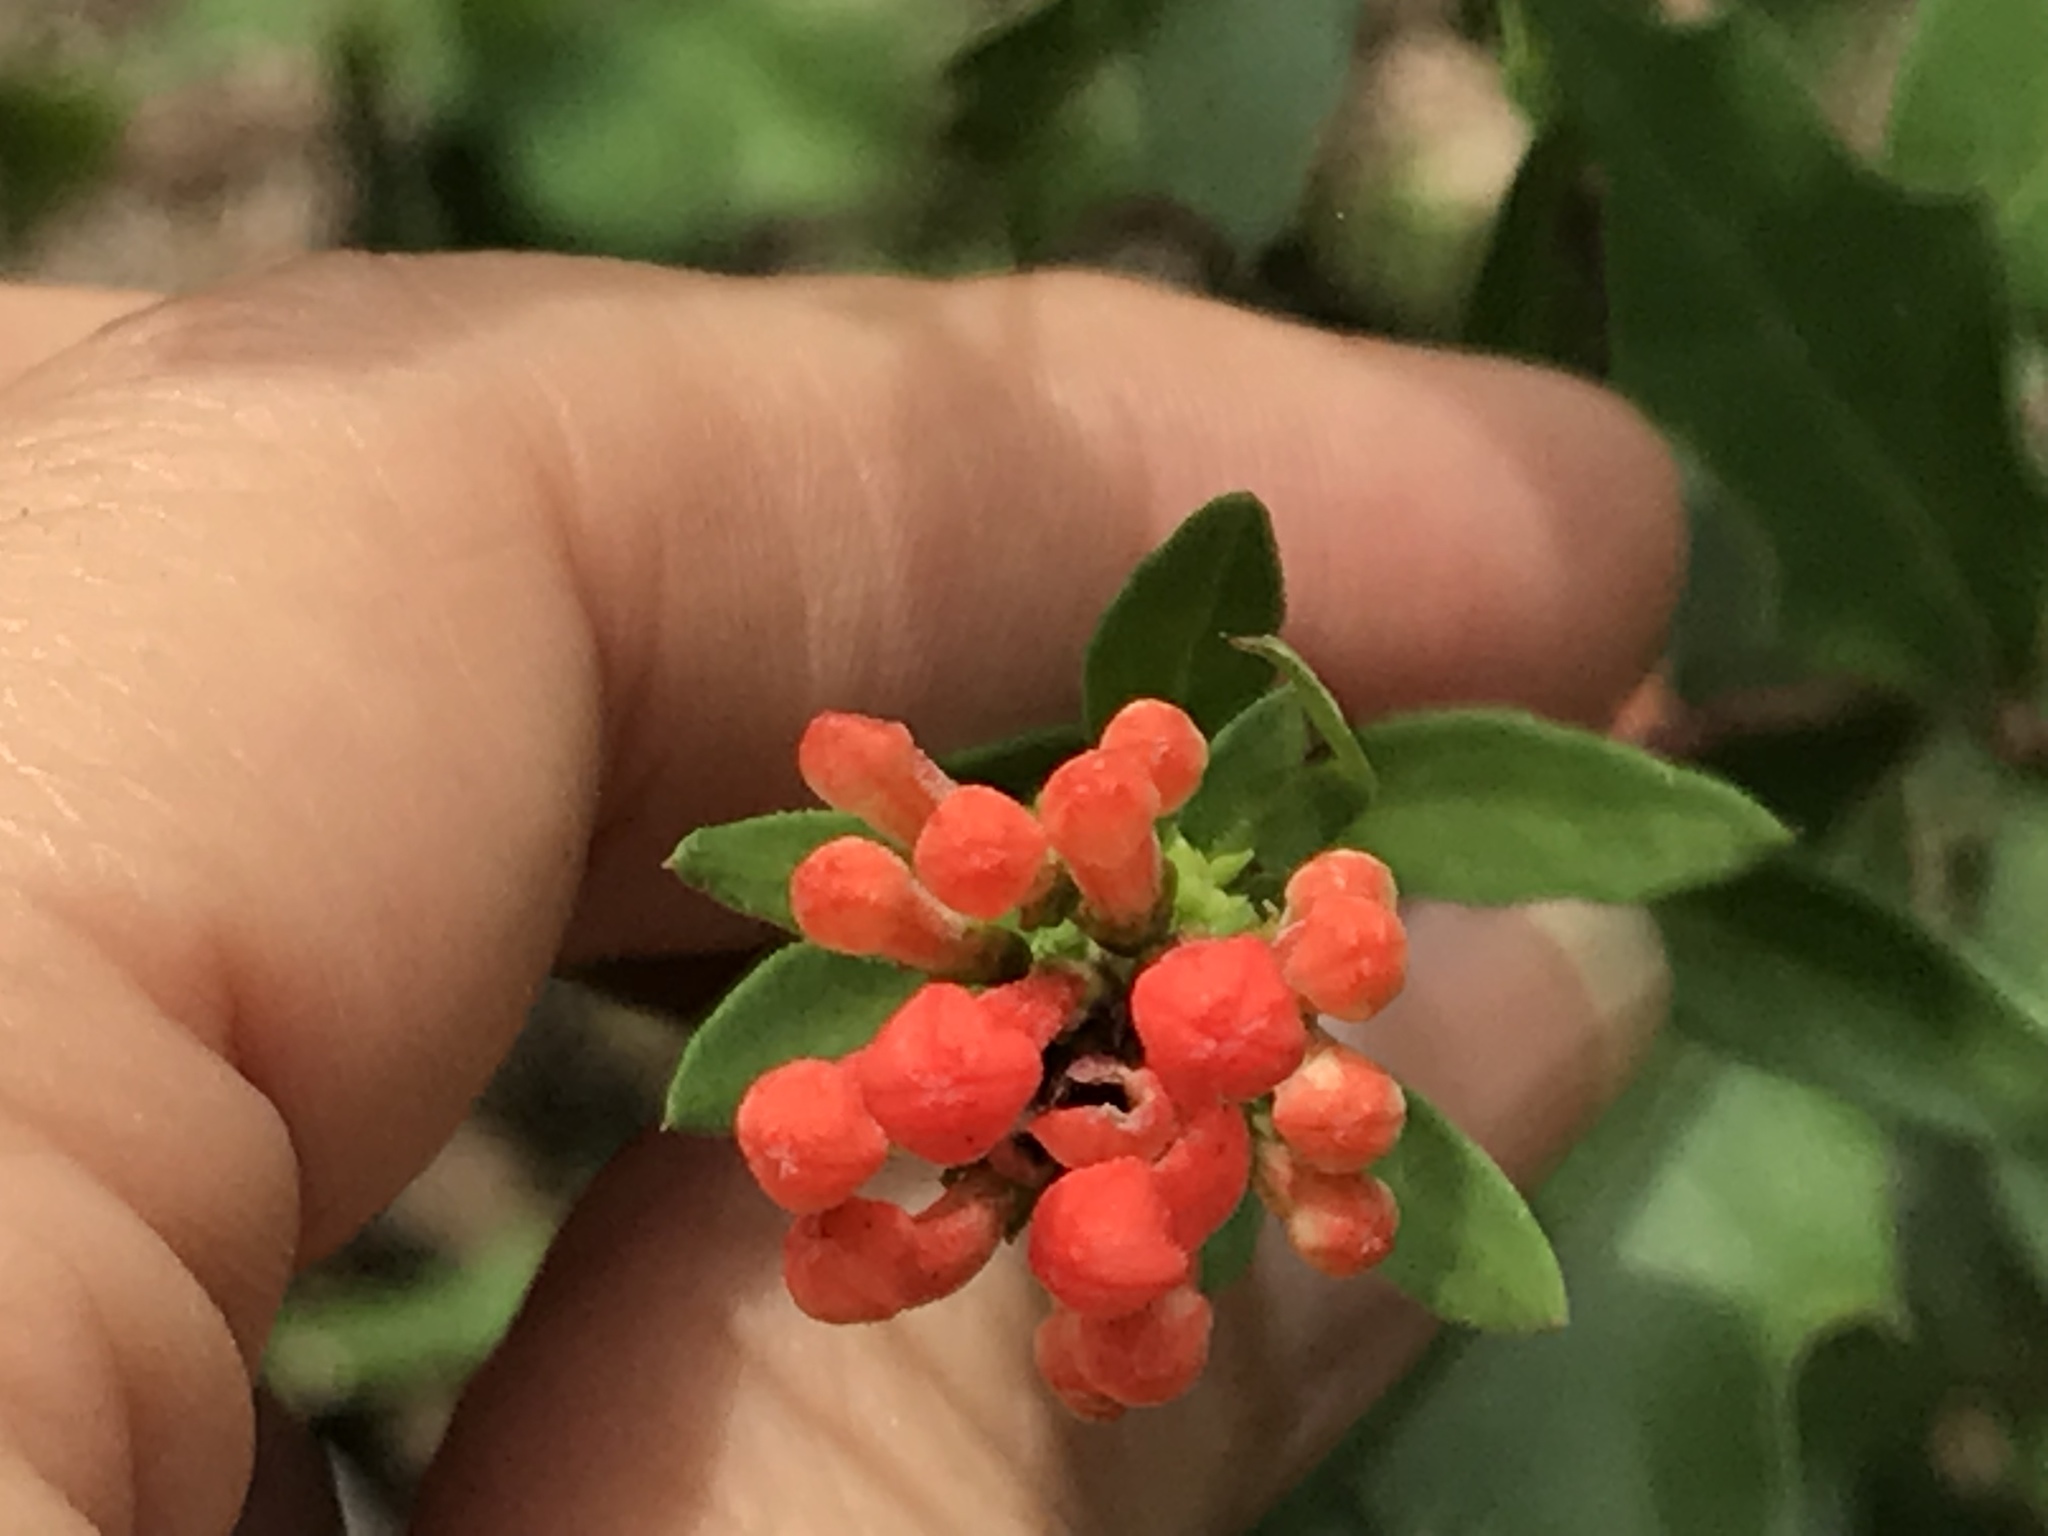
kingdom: Plantae
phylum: Tracheophyta
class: Magnoliopsida
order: Gentianales
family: Rubiaceae
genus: Bouvardia
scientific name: Bouvardia ternifolia
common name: Scarlet bouvardia
